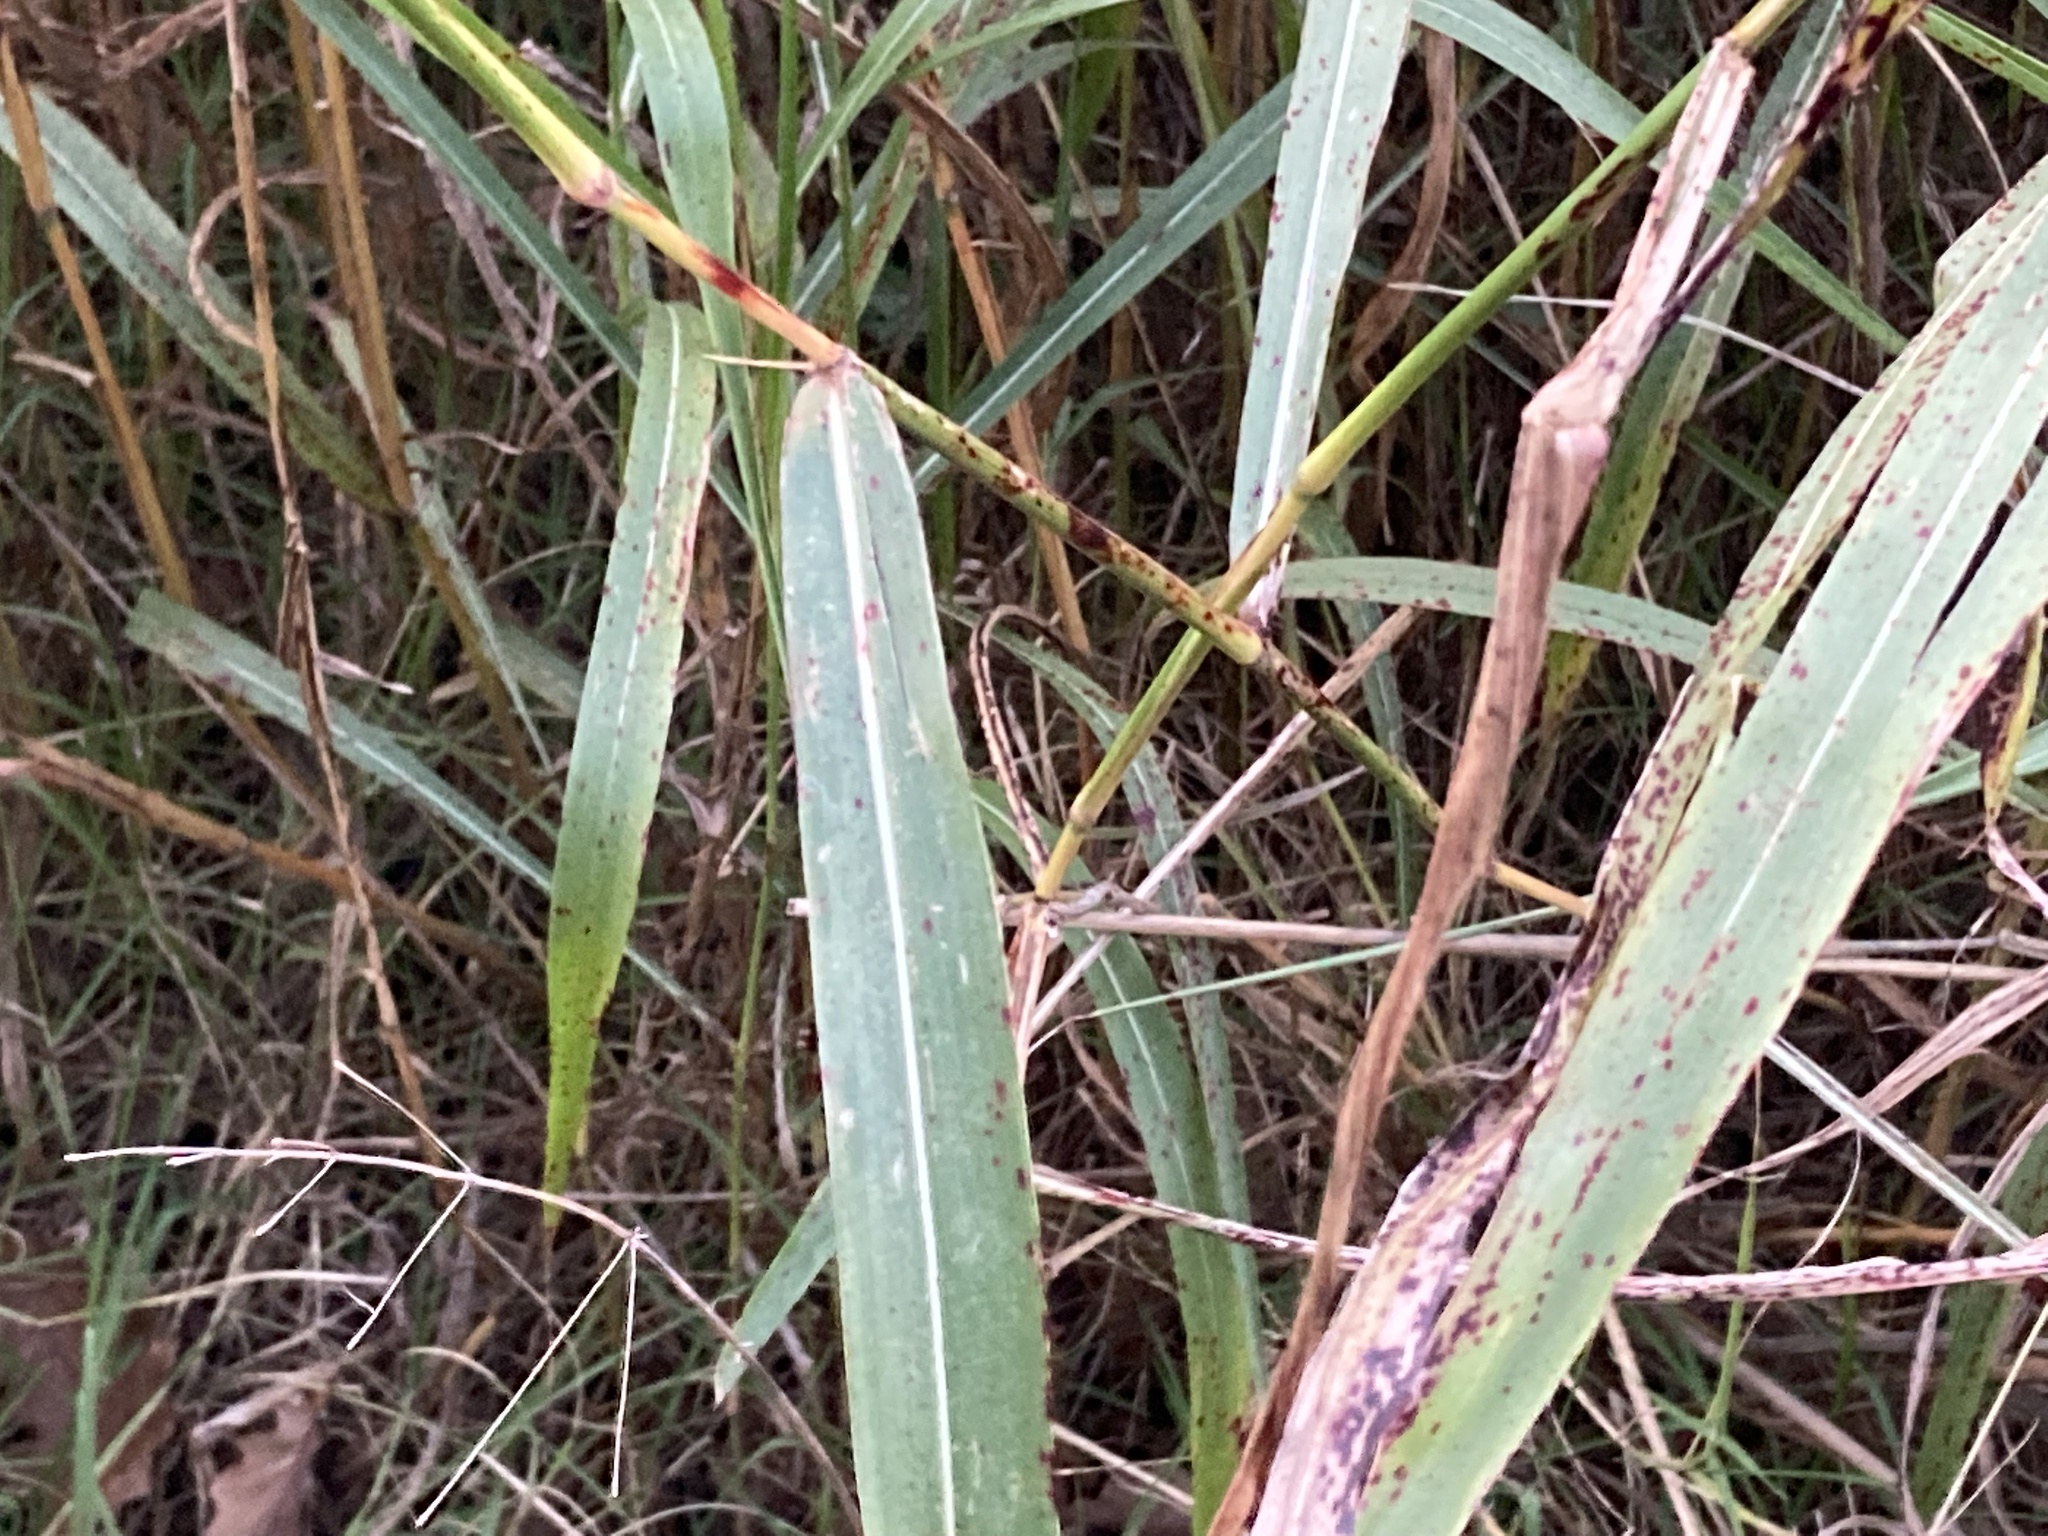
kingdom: Plantae
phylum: Tracheophyta
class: Liliopsida
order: Poales
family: Poaceae
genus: Sorghum
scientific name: Sorghum halepense
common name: Johnson-grass
